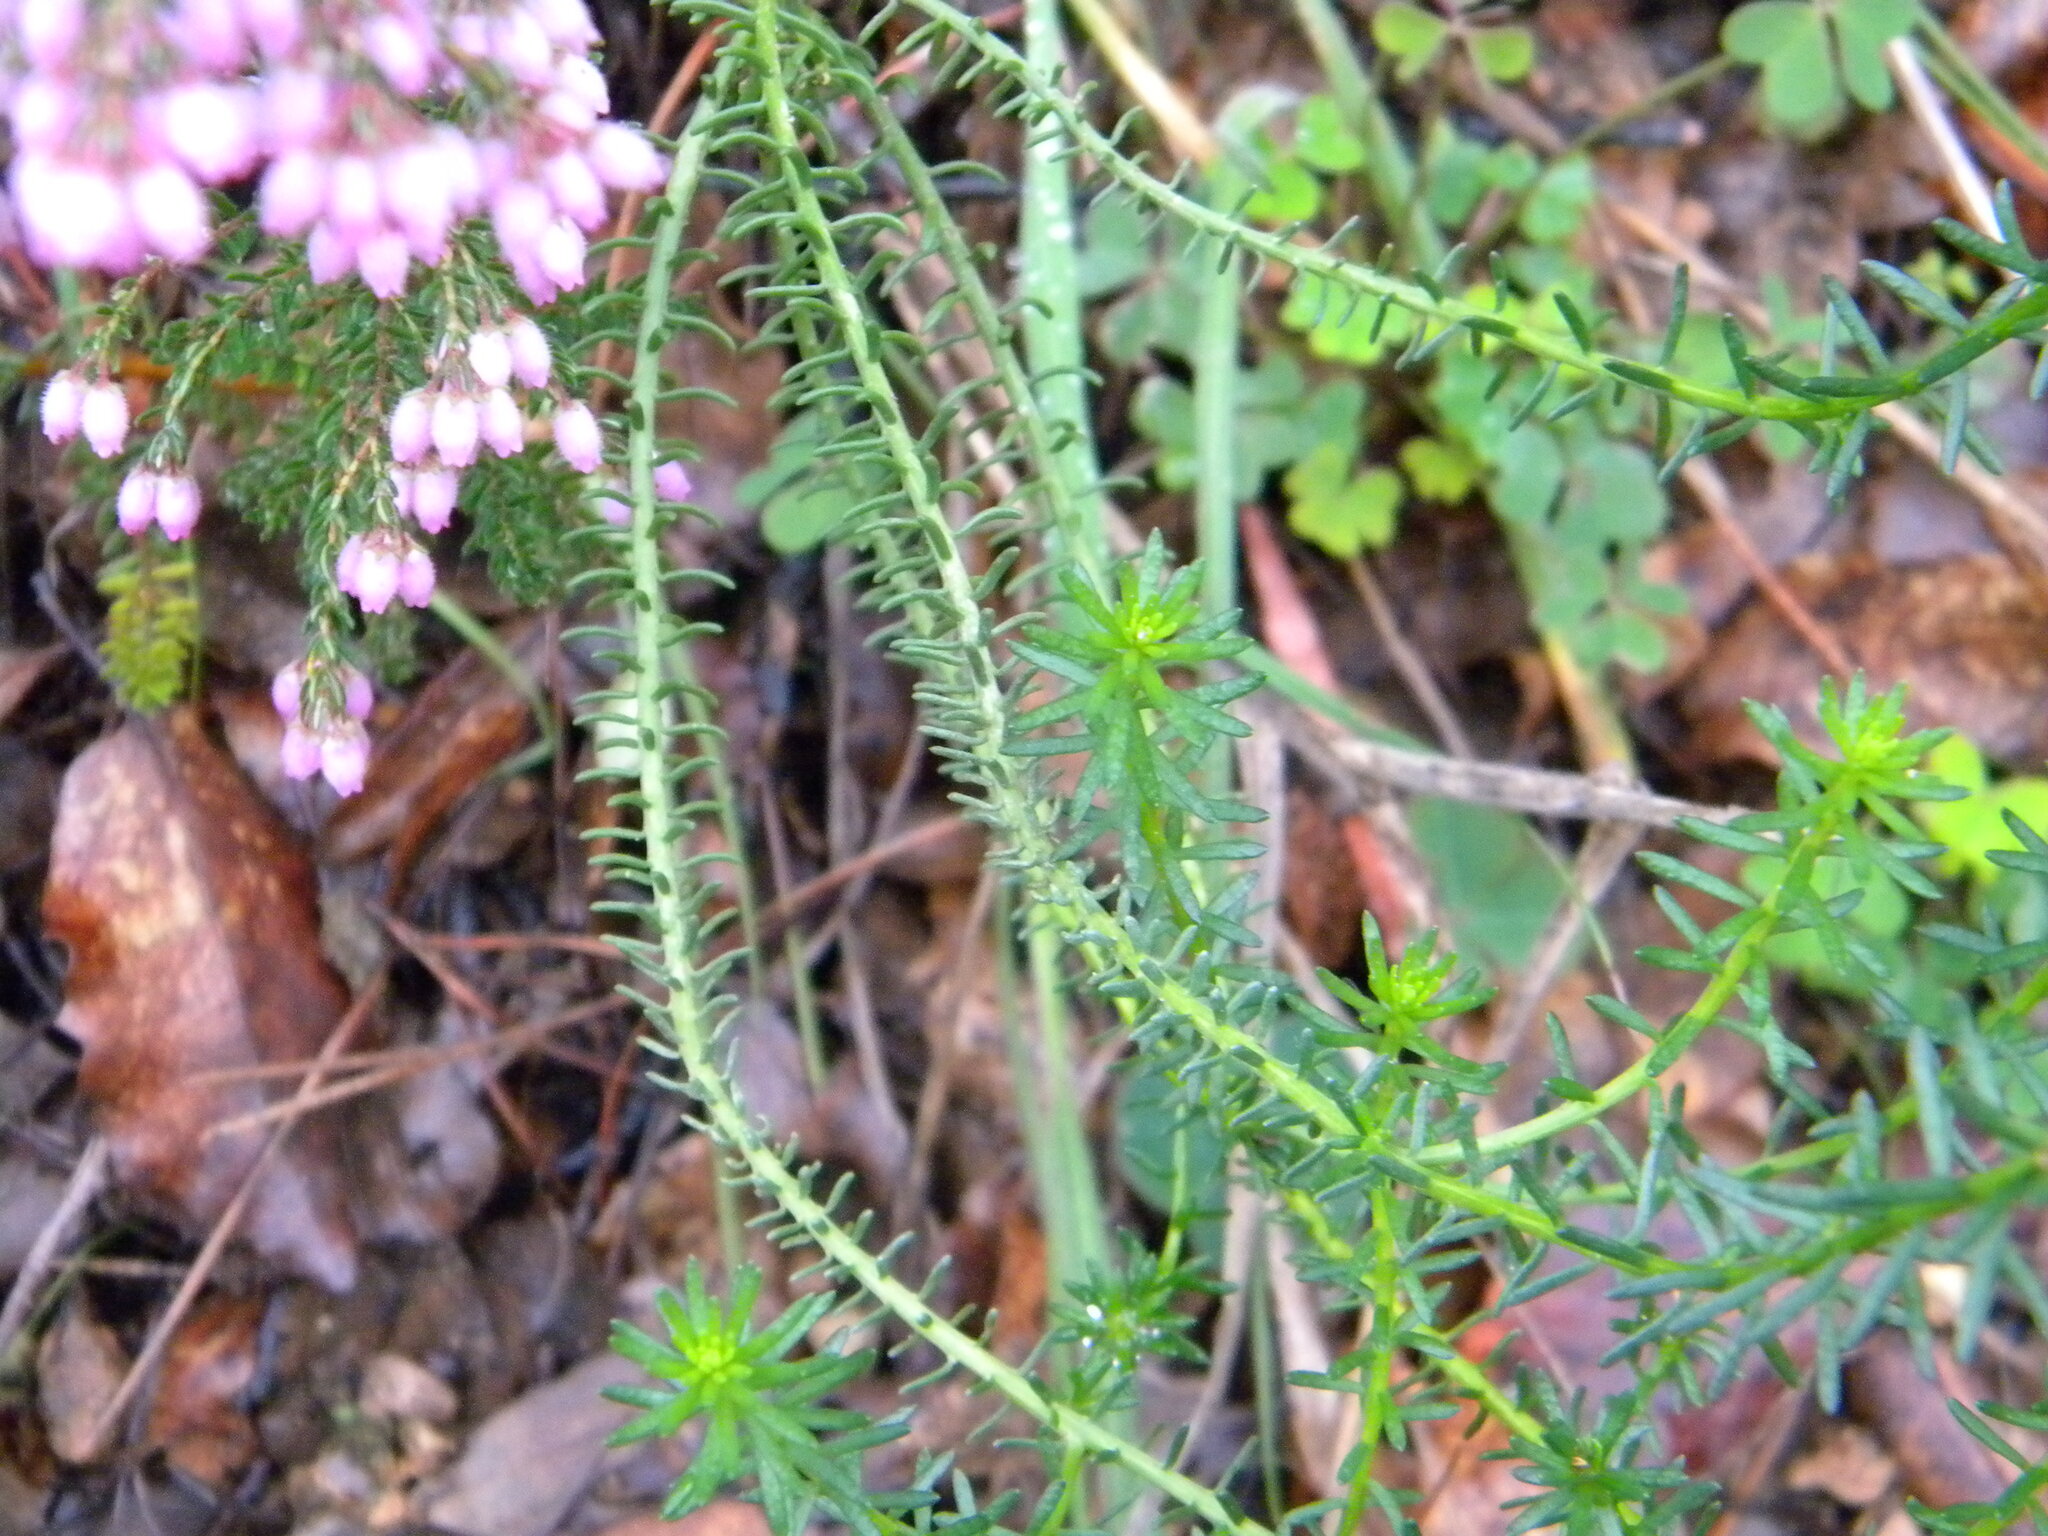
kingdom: Plantae
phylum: Tracheophyta
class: Magnoliopsida
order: Ericales
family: Ericaceae
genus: Erica
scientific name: Erica hirtiflora
